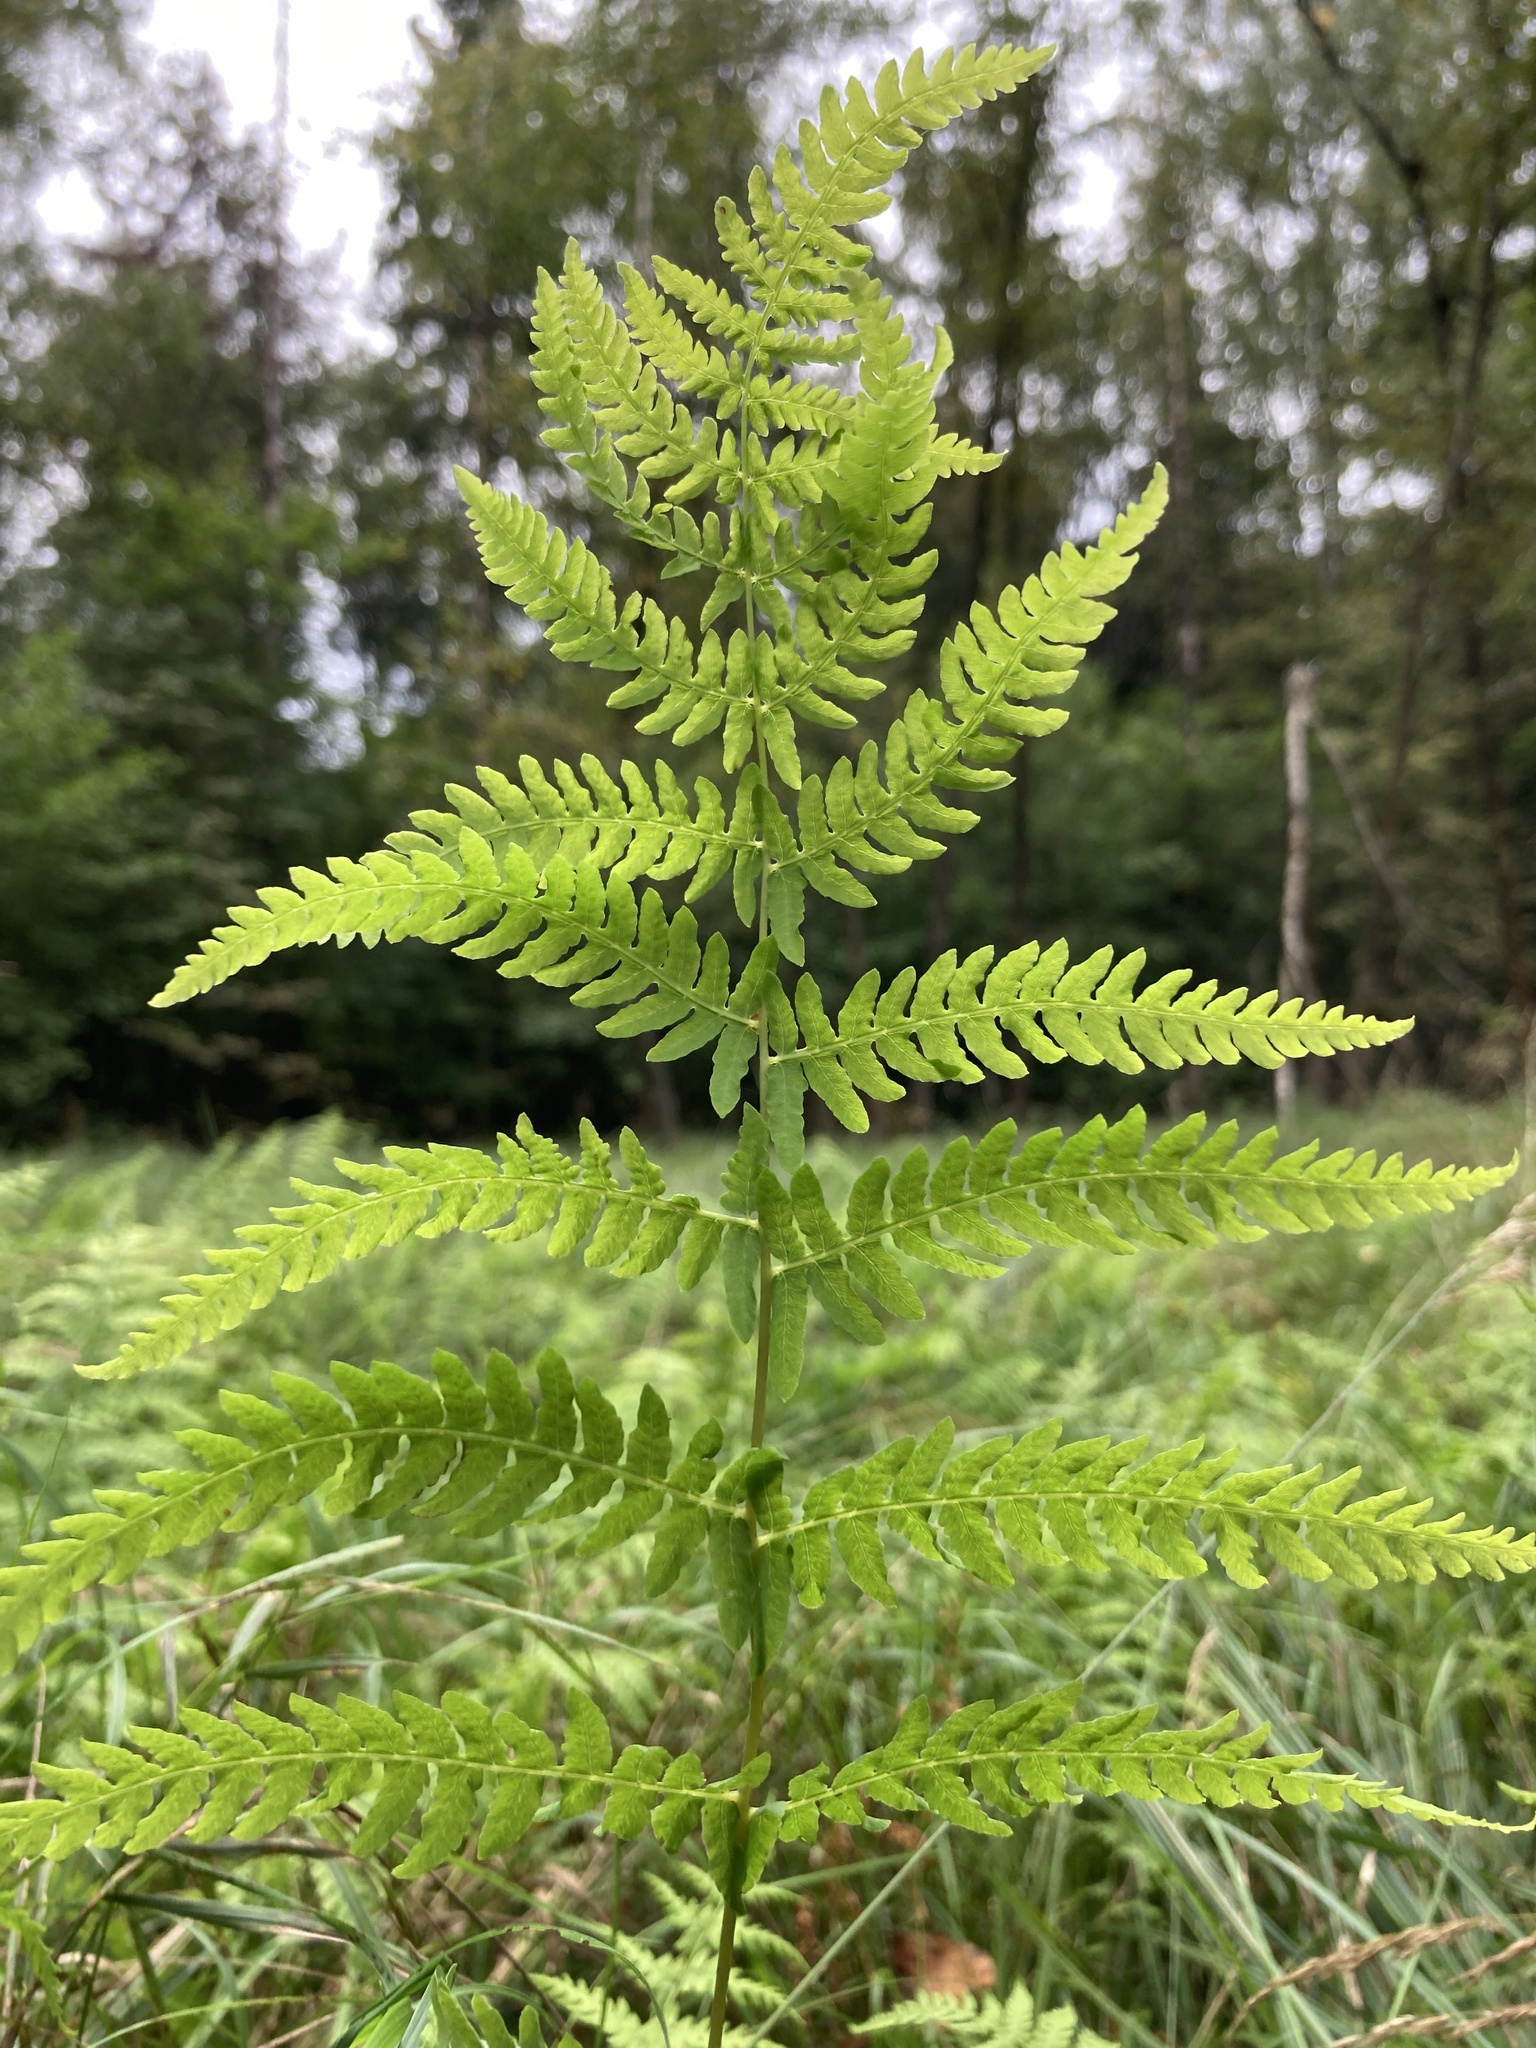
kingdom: Plantae
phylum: Tracheophyta
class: Polypodiopsida
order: Polypodiales
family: Thelypteridaceae
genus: Thelypteris
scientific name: Thelypteris palustris
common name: Marsh fern
